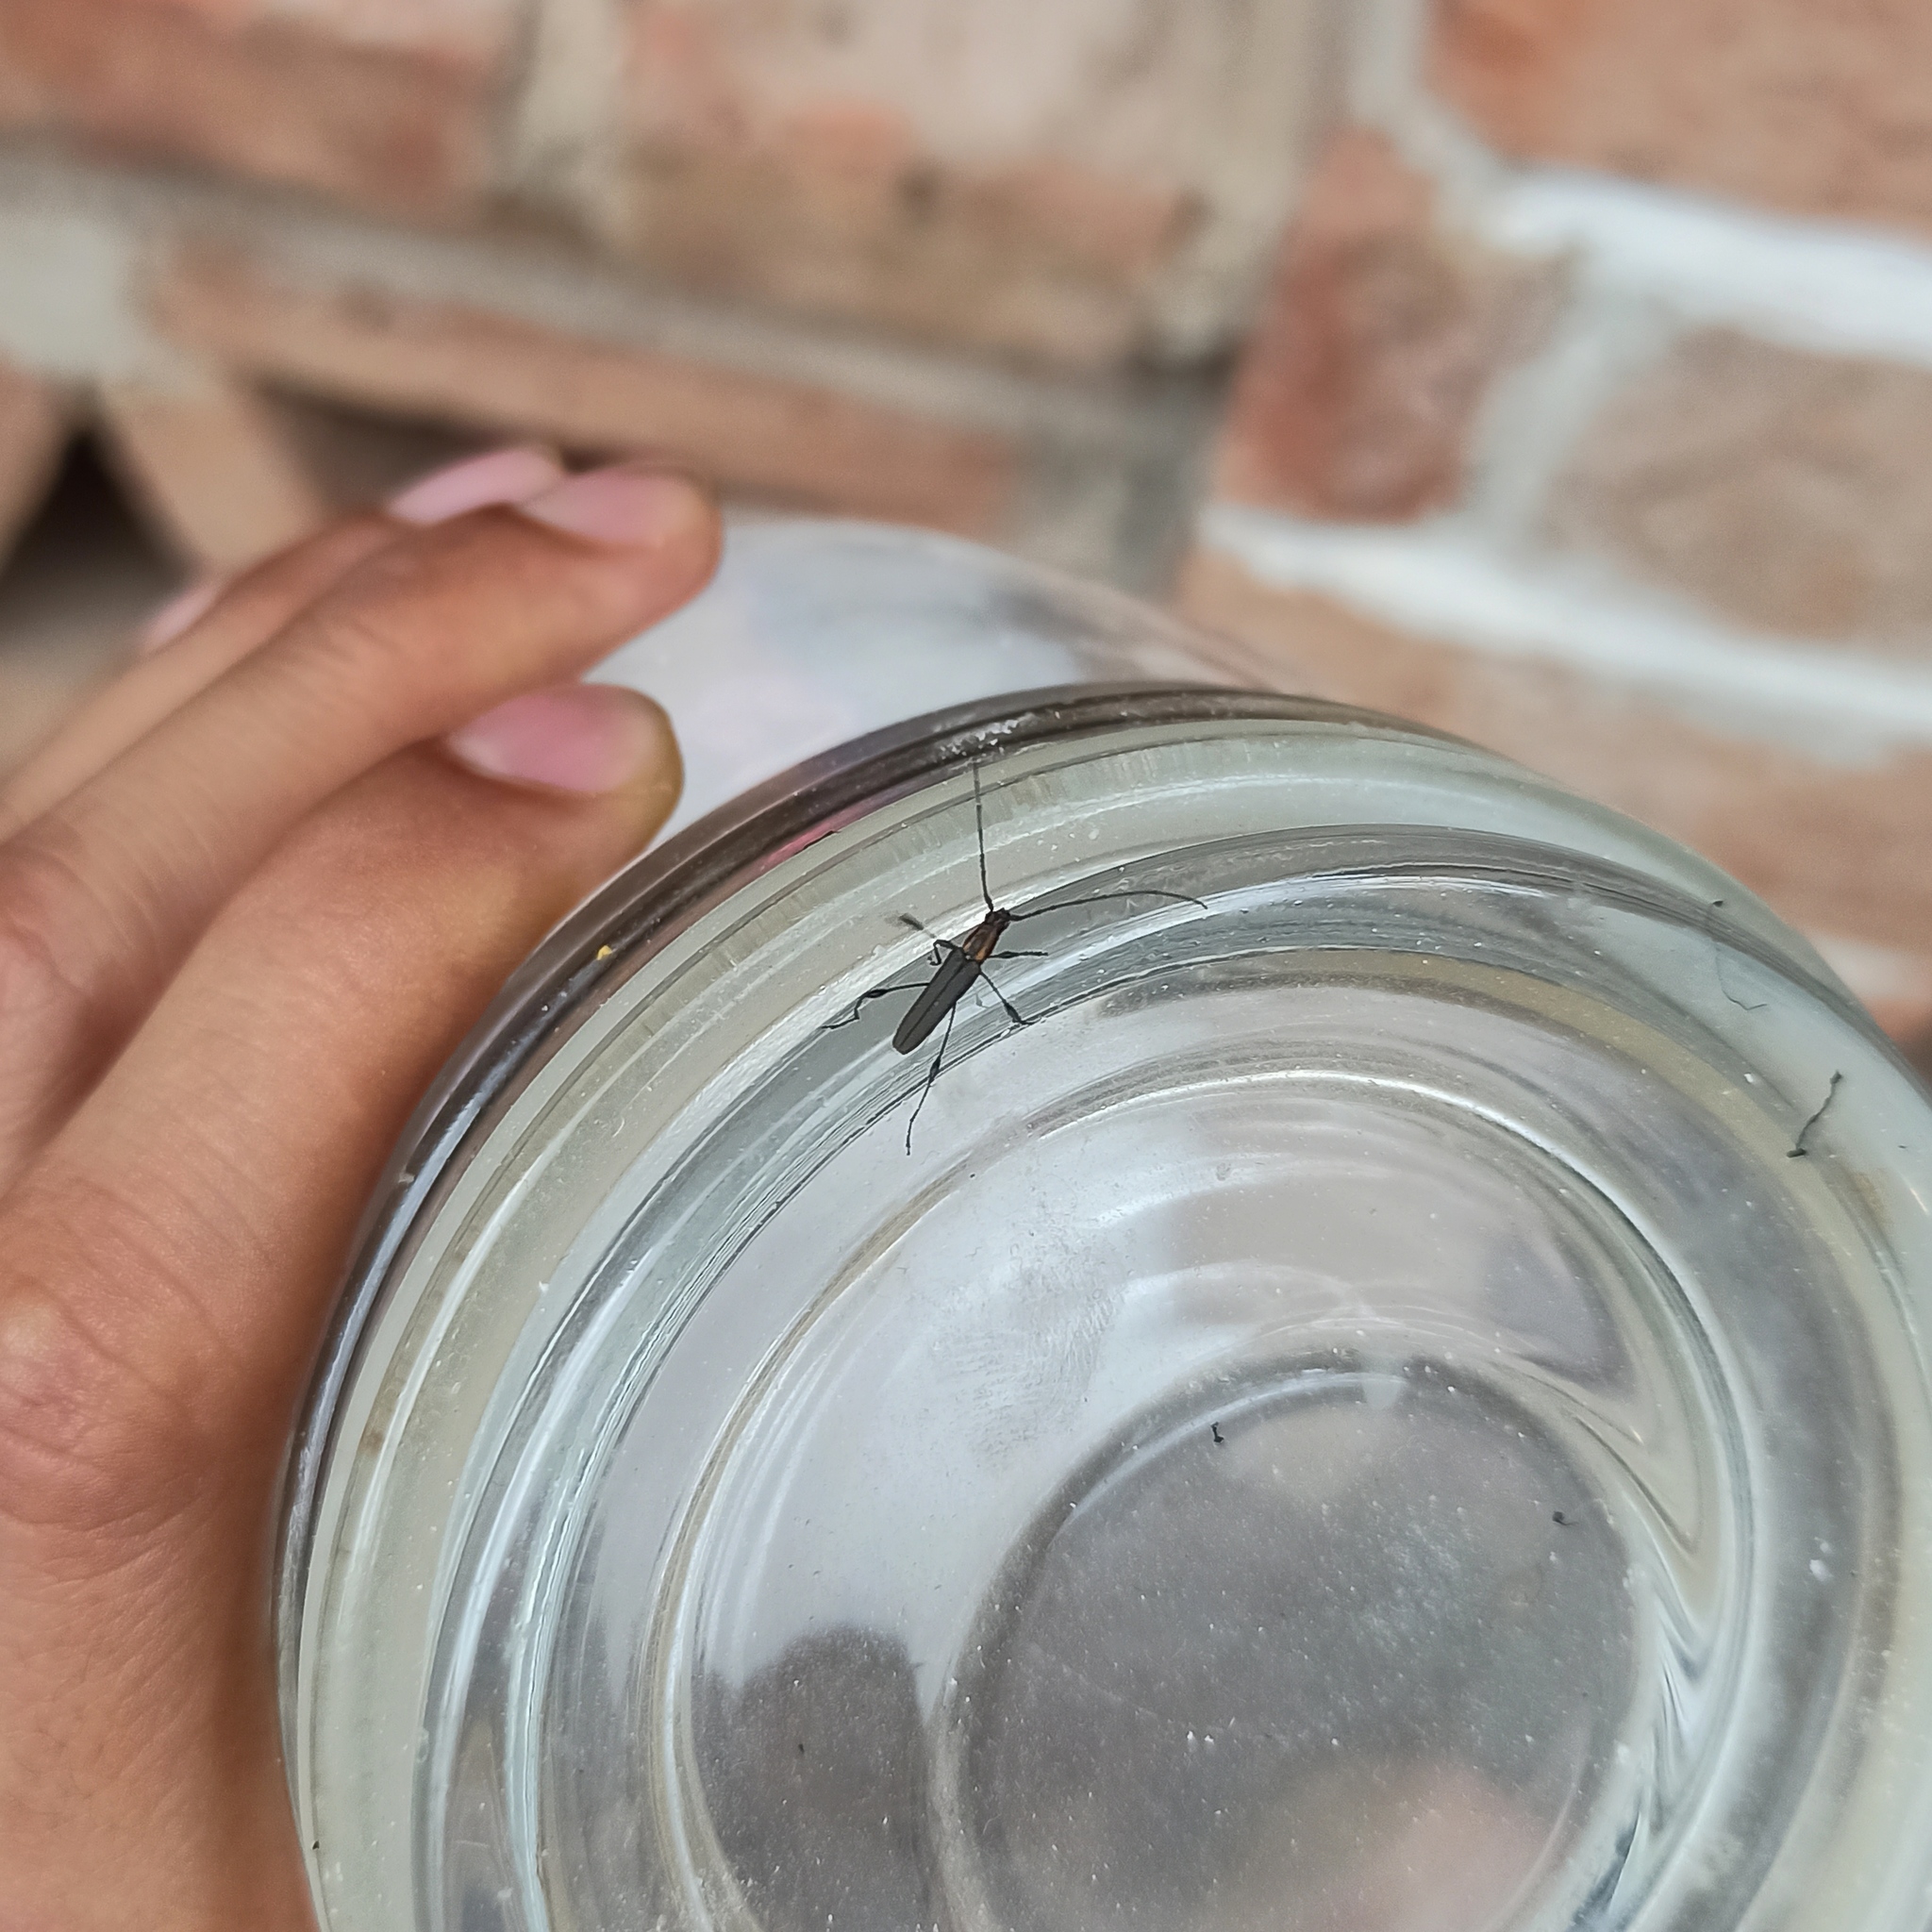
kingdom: Animalia
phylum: Arthropoda
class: Insecta
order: Coleoptera
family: Cerambycidae
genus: Rhopalophora
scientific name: Rhopalophora tenuis
